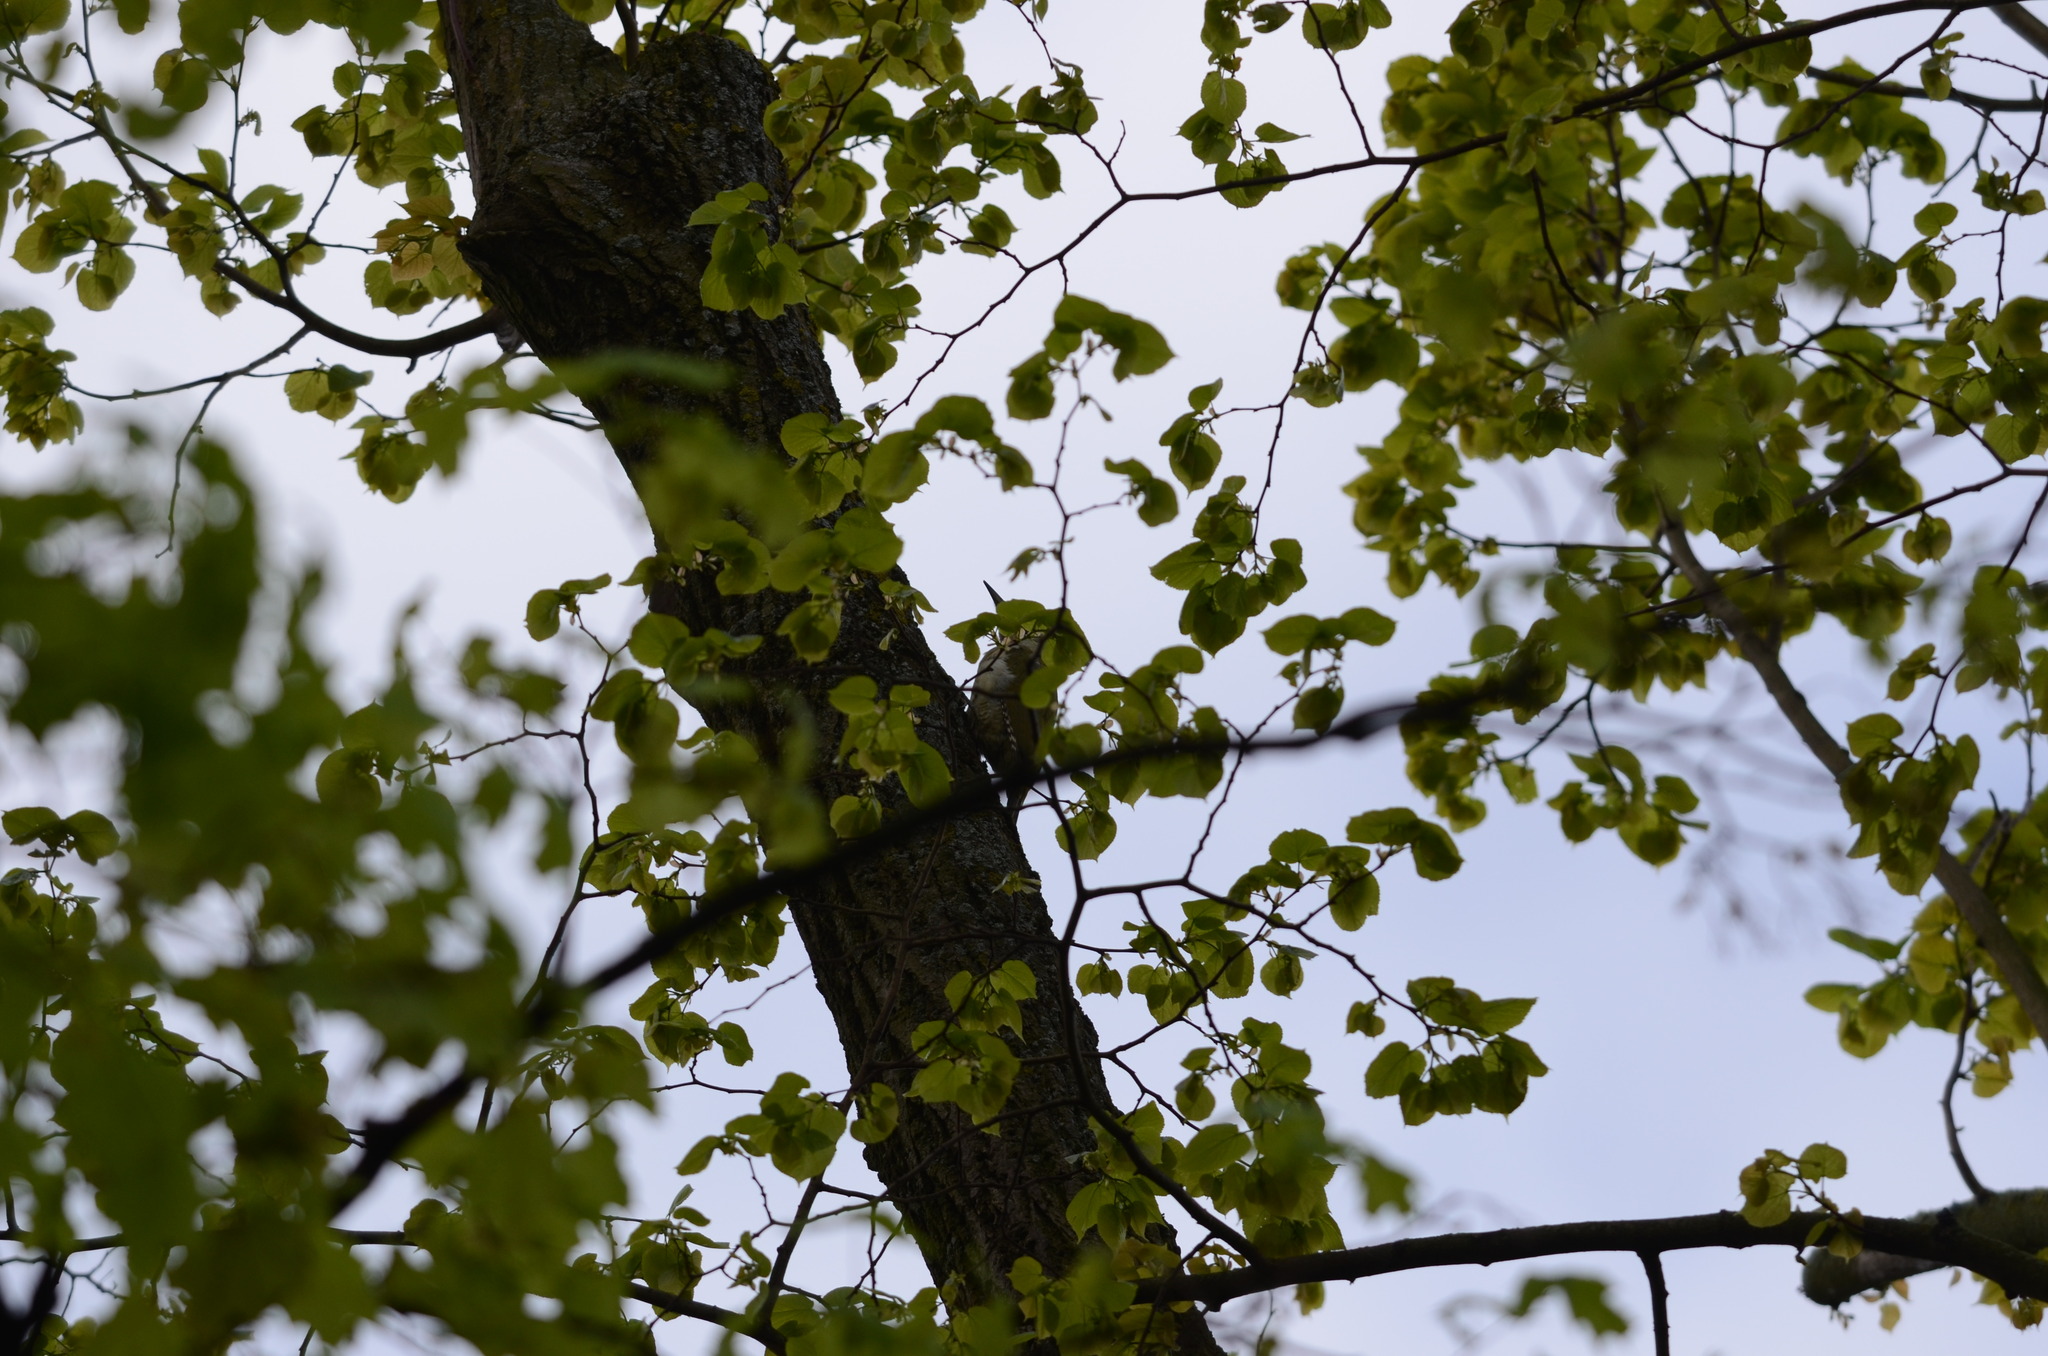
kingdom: Animalia
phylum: Chordata
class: Aves
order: Piciformes
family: Picidae
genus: Picus
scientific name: Picus viridis
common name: European green woodpecker
